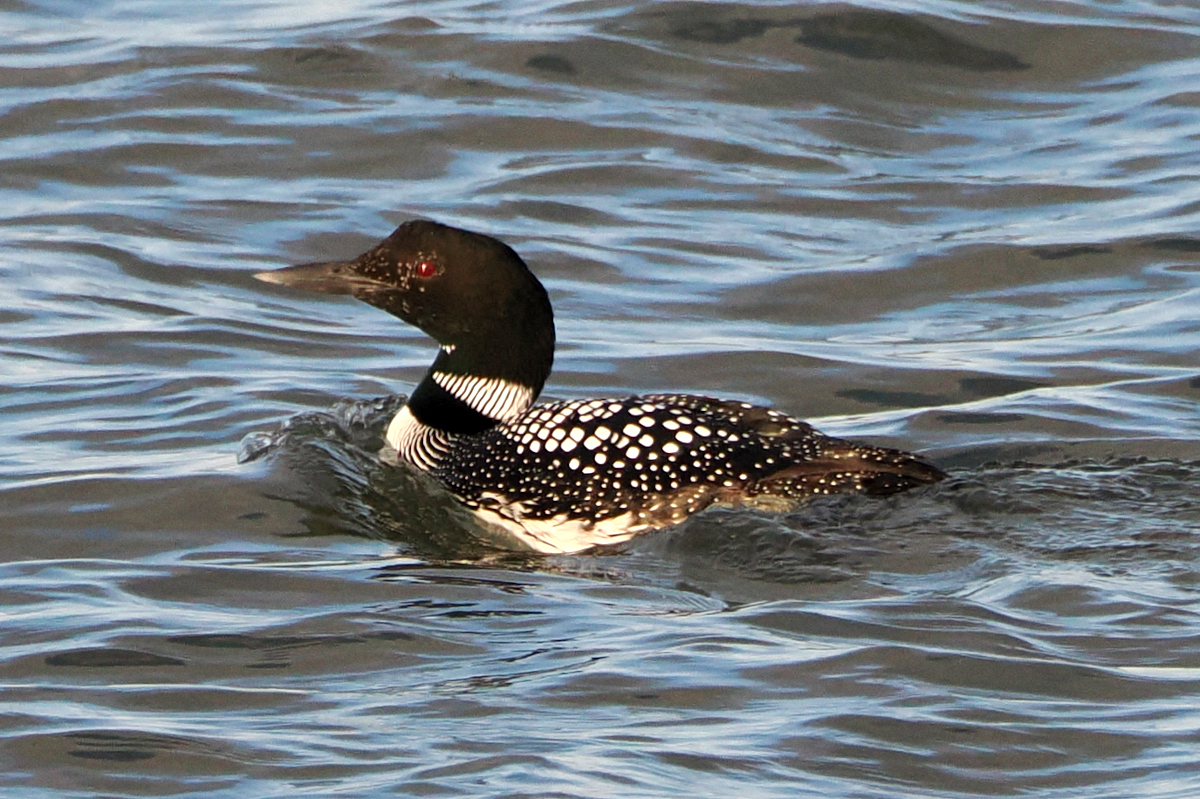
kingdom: Animalia
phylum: Chordata
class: Aves
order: Gaviiformes
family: Gaviidae
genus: Gavia
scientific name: Gavia immer
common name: Common loon
